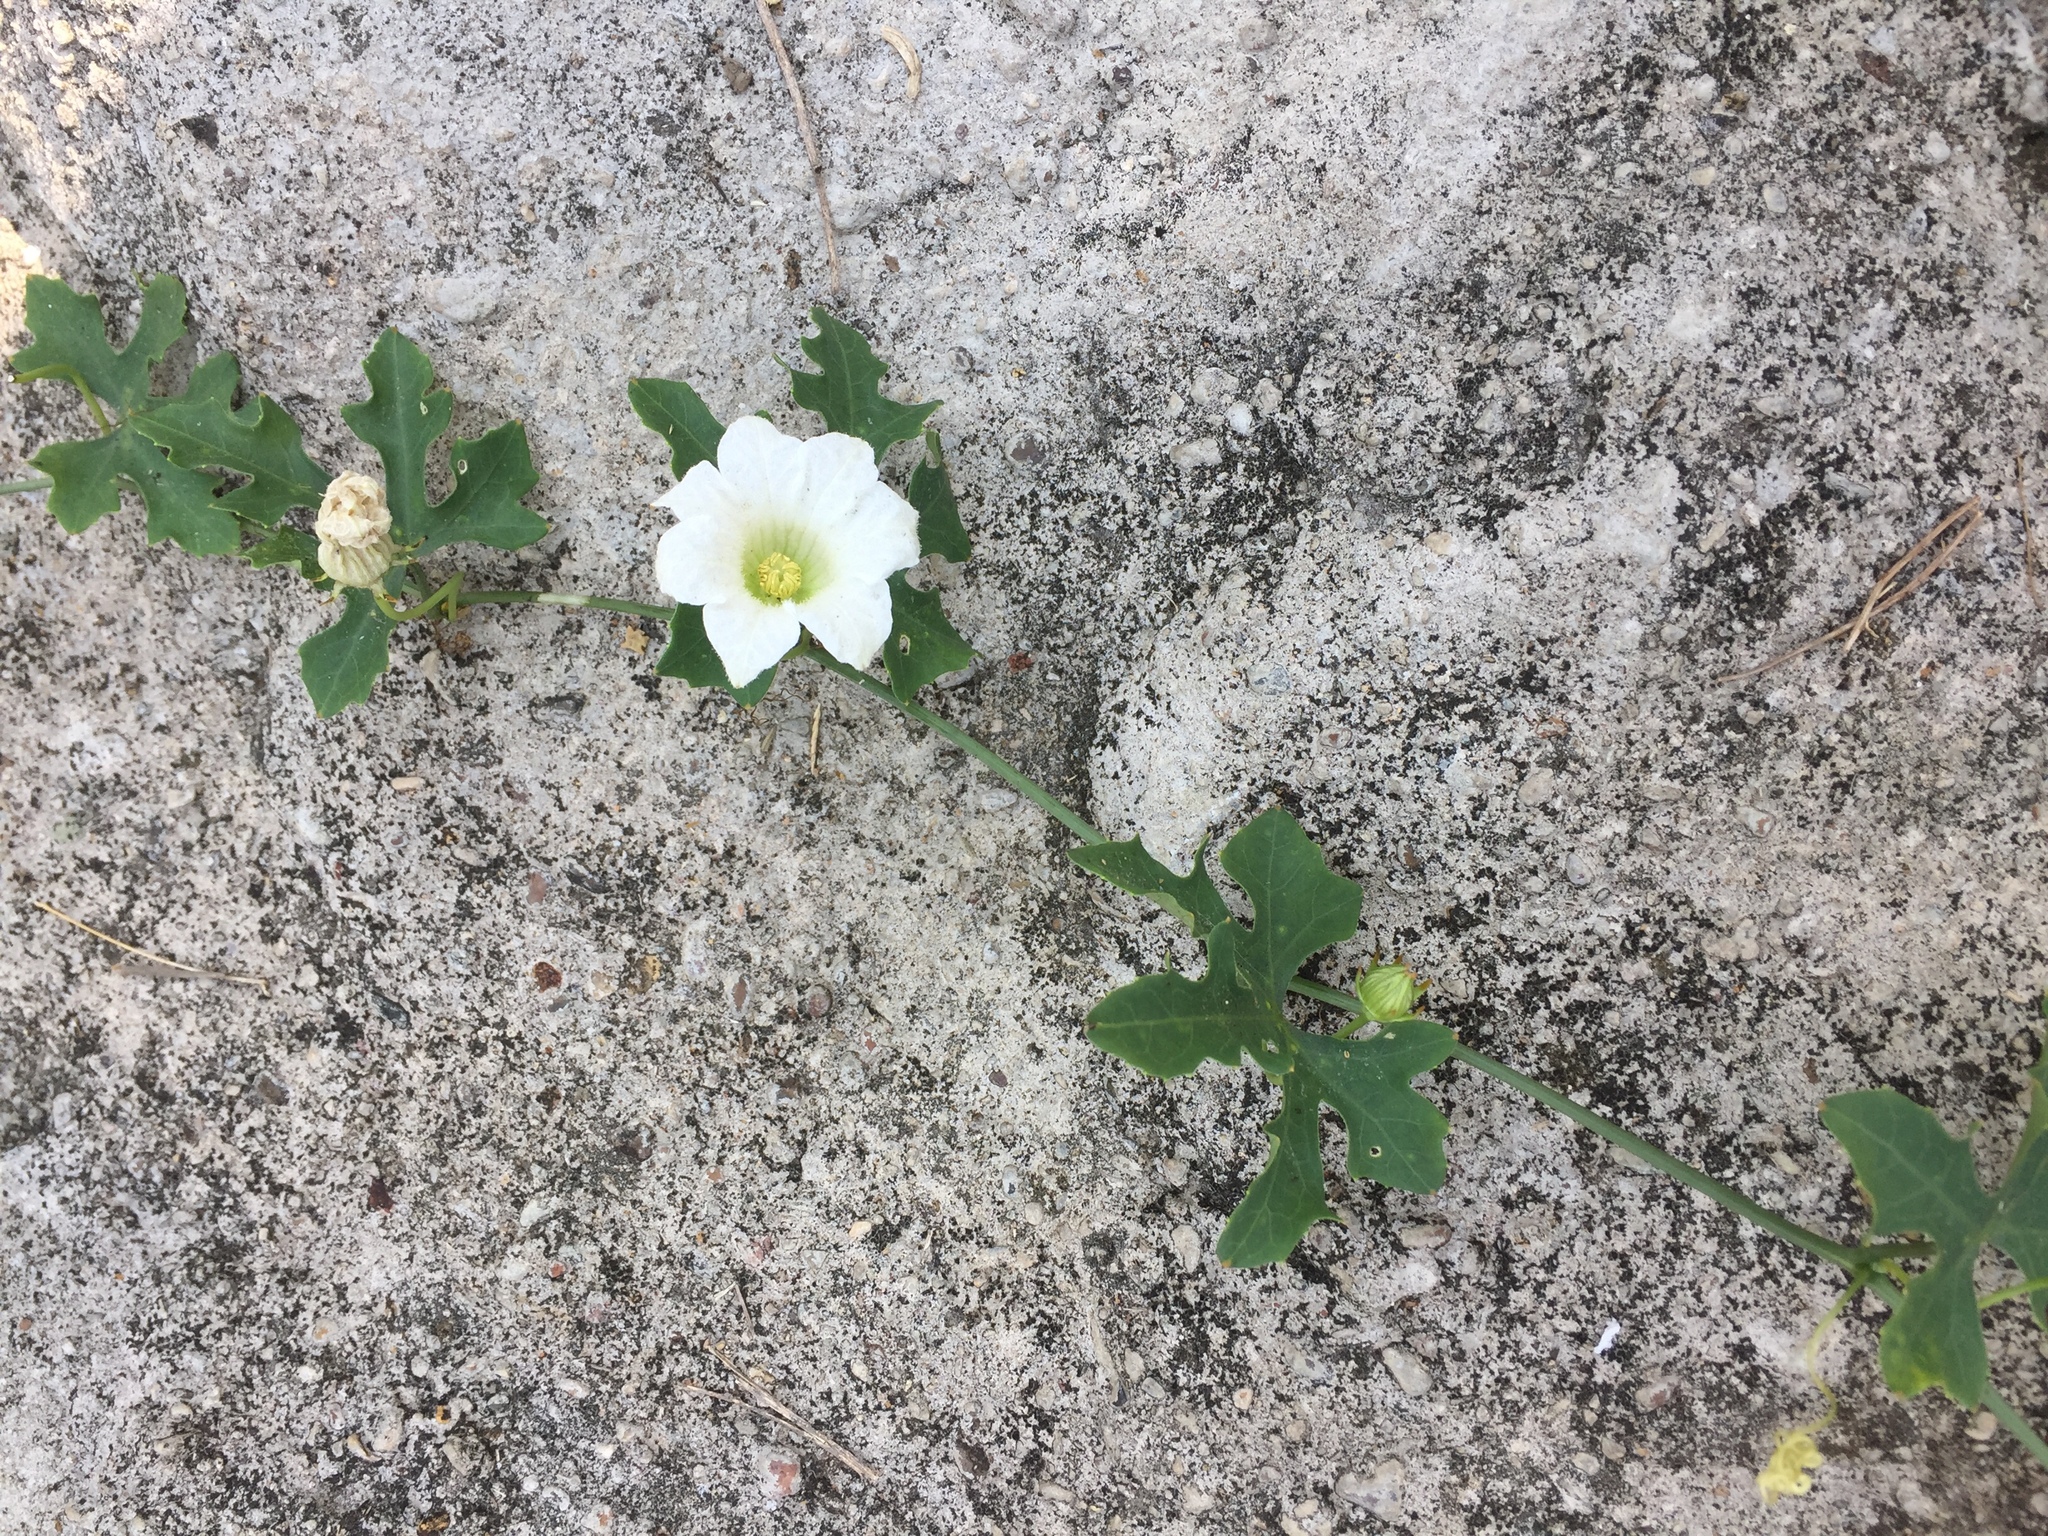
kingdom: Plantae
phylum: Tracheophyta
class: Magnoliopsida
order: Cucurbitales
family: Cucurbitaceae
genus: Coccinia
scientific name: Coccinia grandis
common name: Ivy gourd
